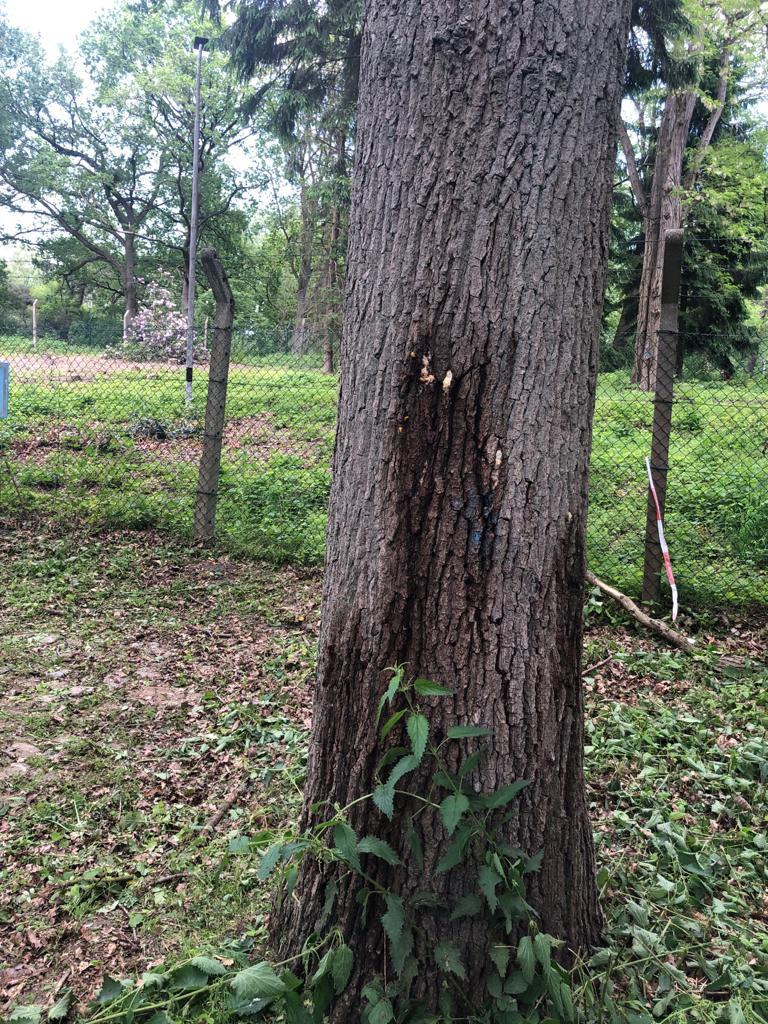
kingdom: Animalia
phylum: Arthropoda
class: Insecta
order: Hymenoptera
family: Vespidae
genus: Vespa
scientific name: Vespa crabro
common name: Hornet
